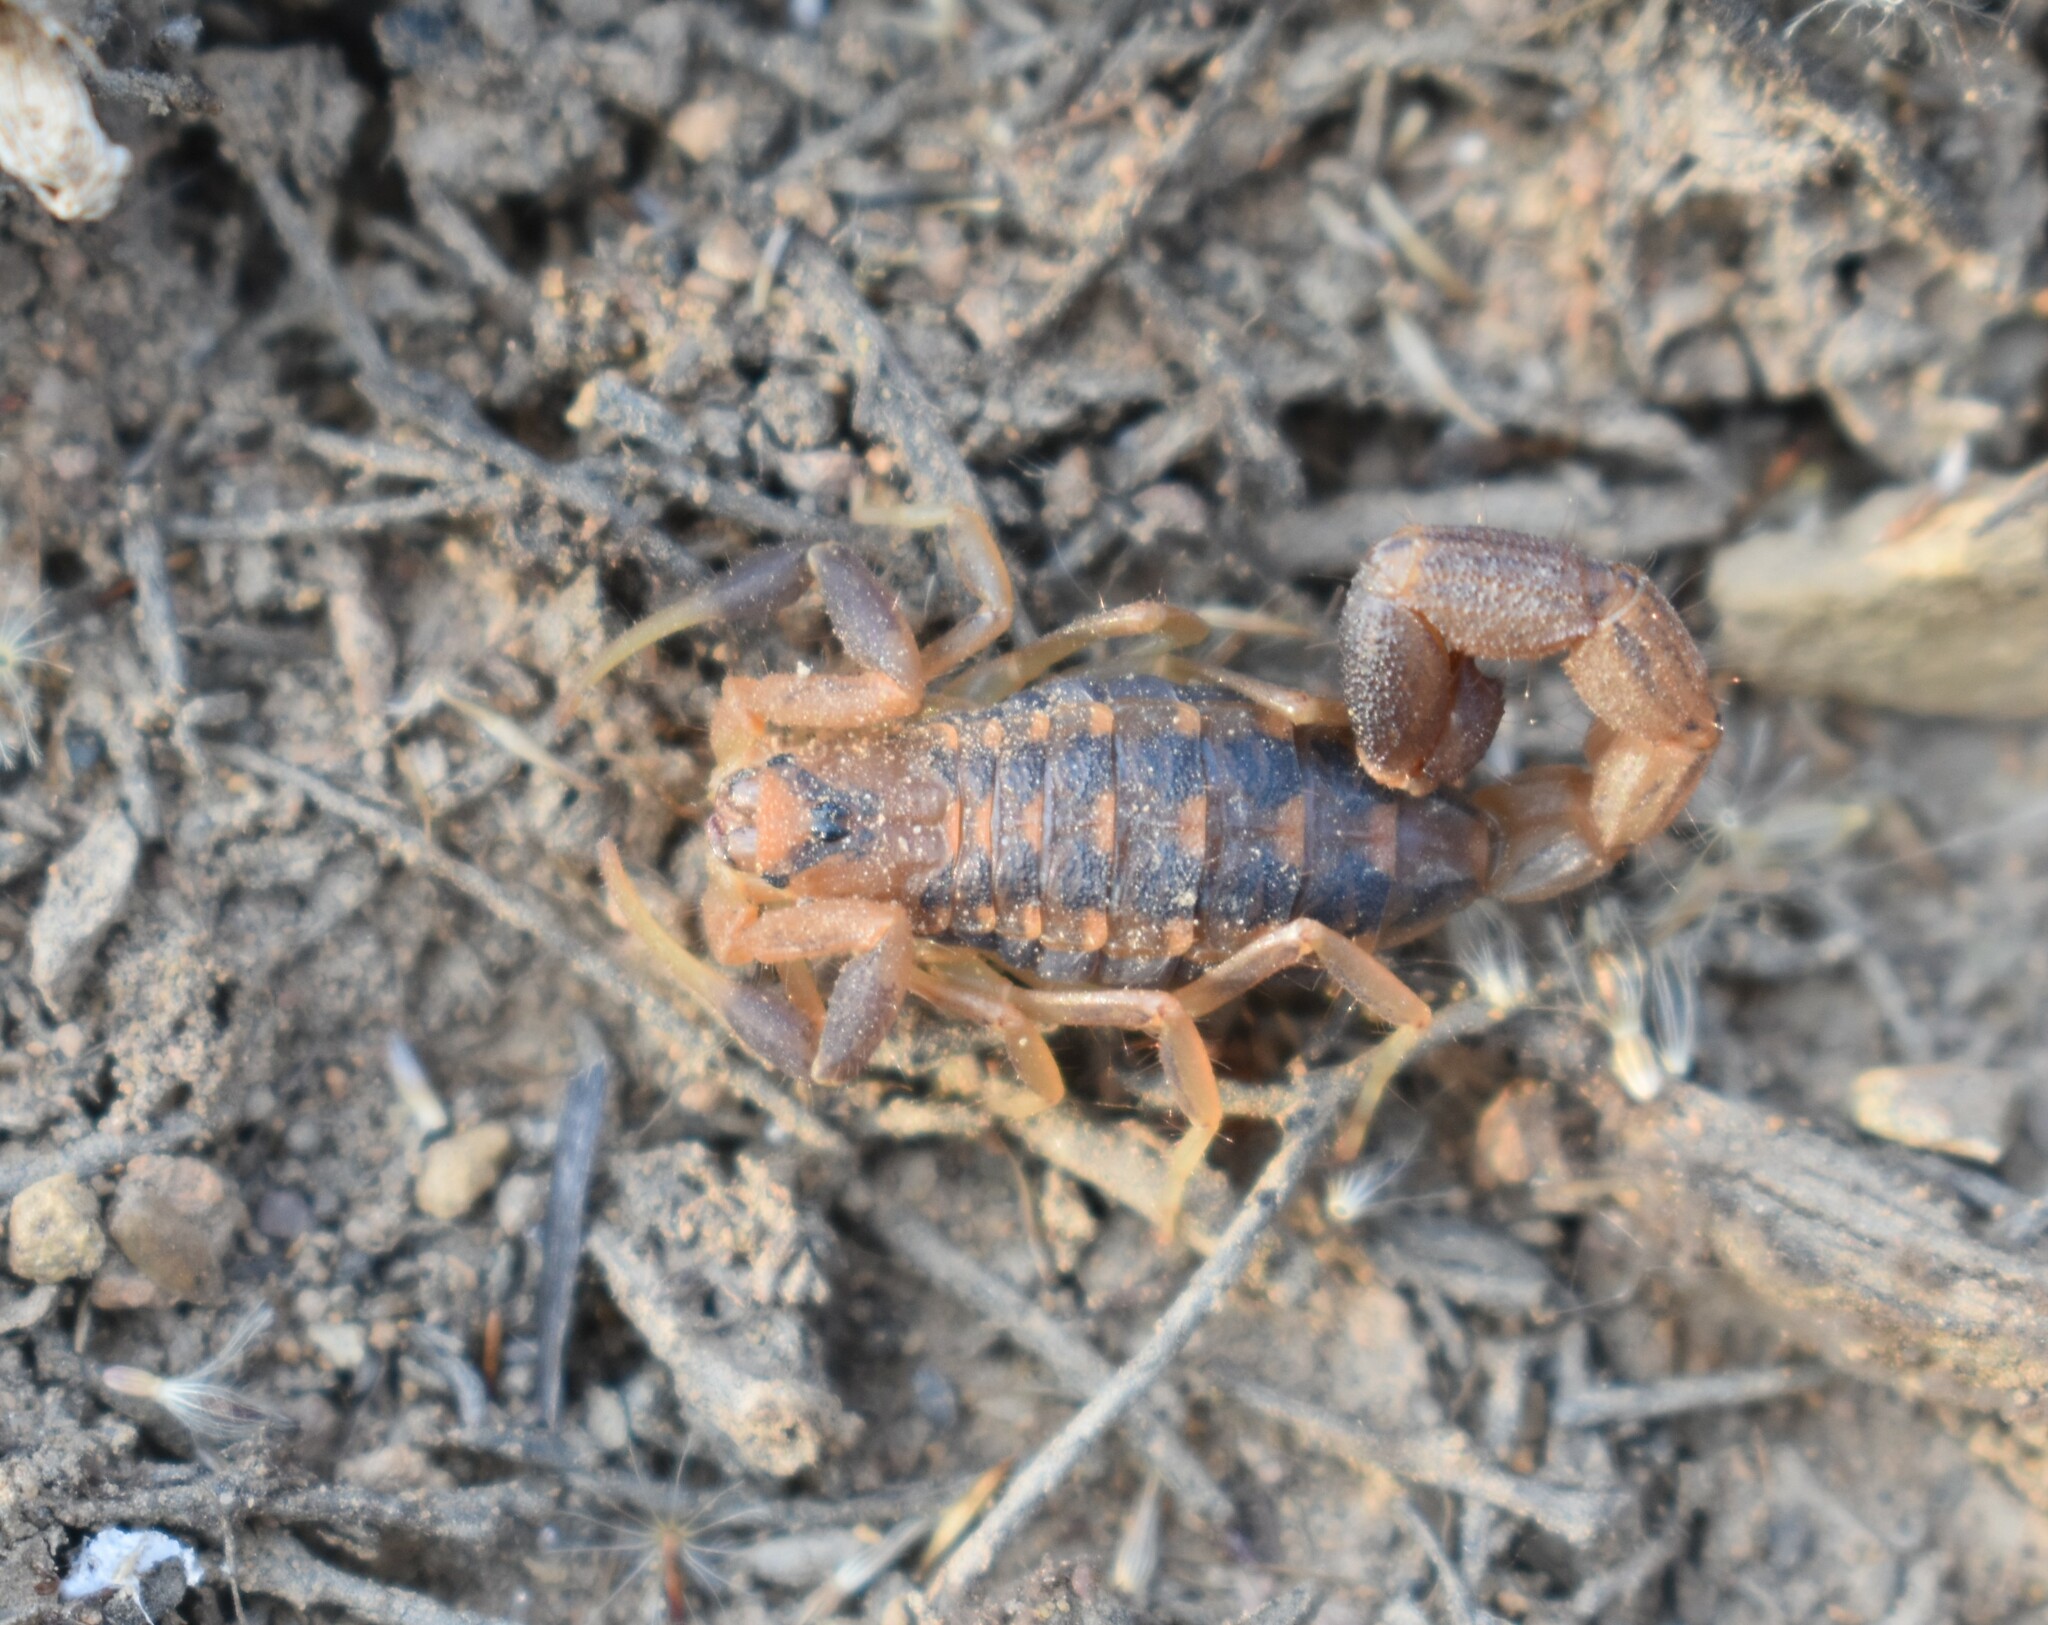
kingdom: Animalia
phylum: Arthropoda
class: Arachnida
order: Scorpiones
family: Buthidae
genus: Uroplectes
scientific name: Uroplectes triangulifer
